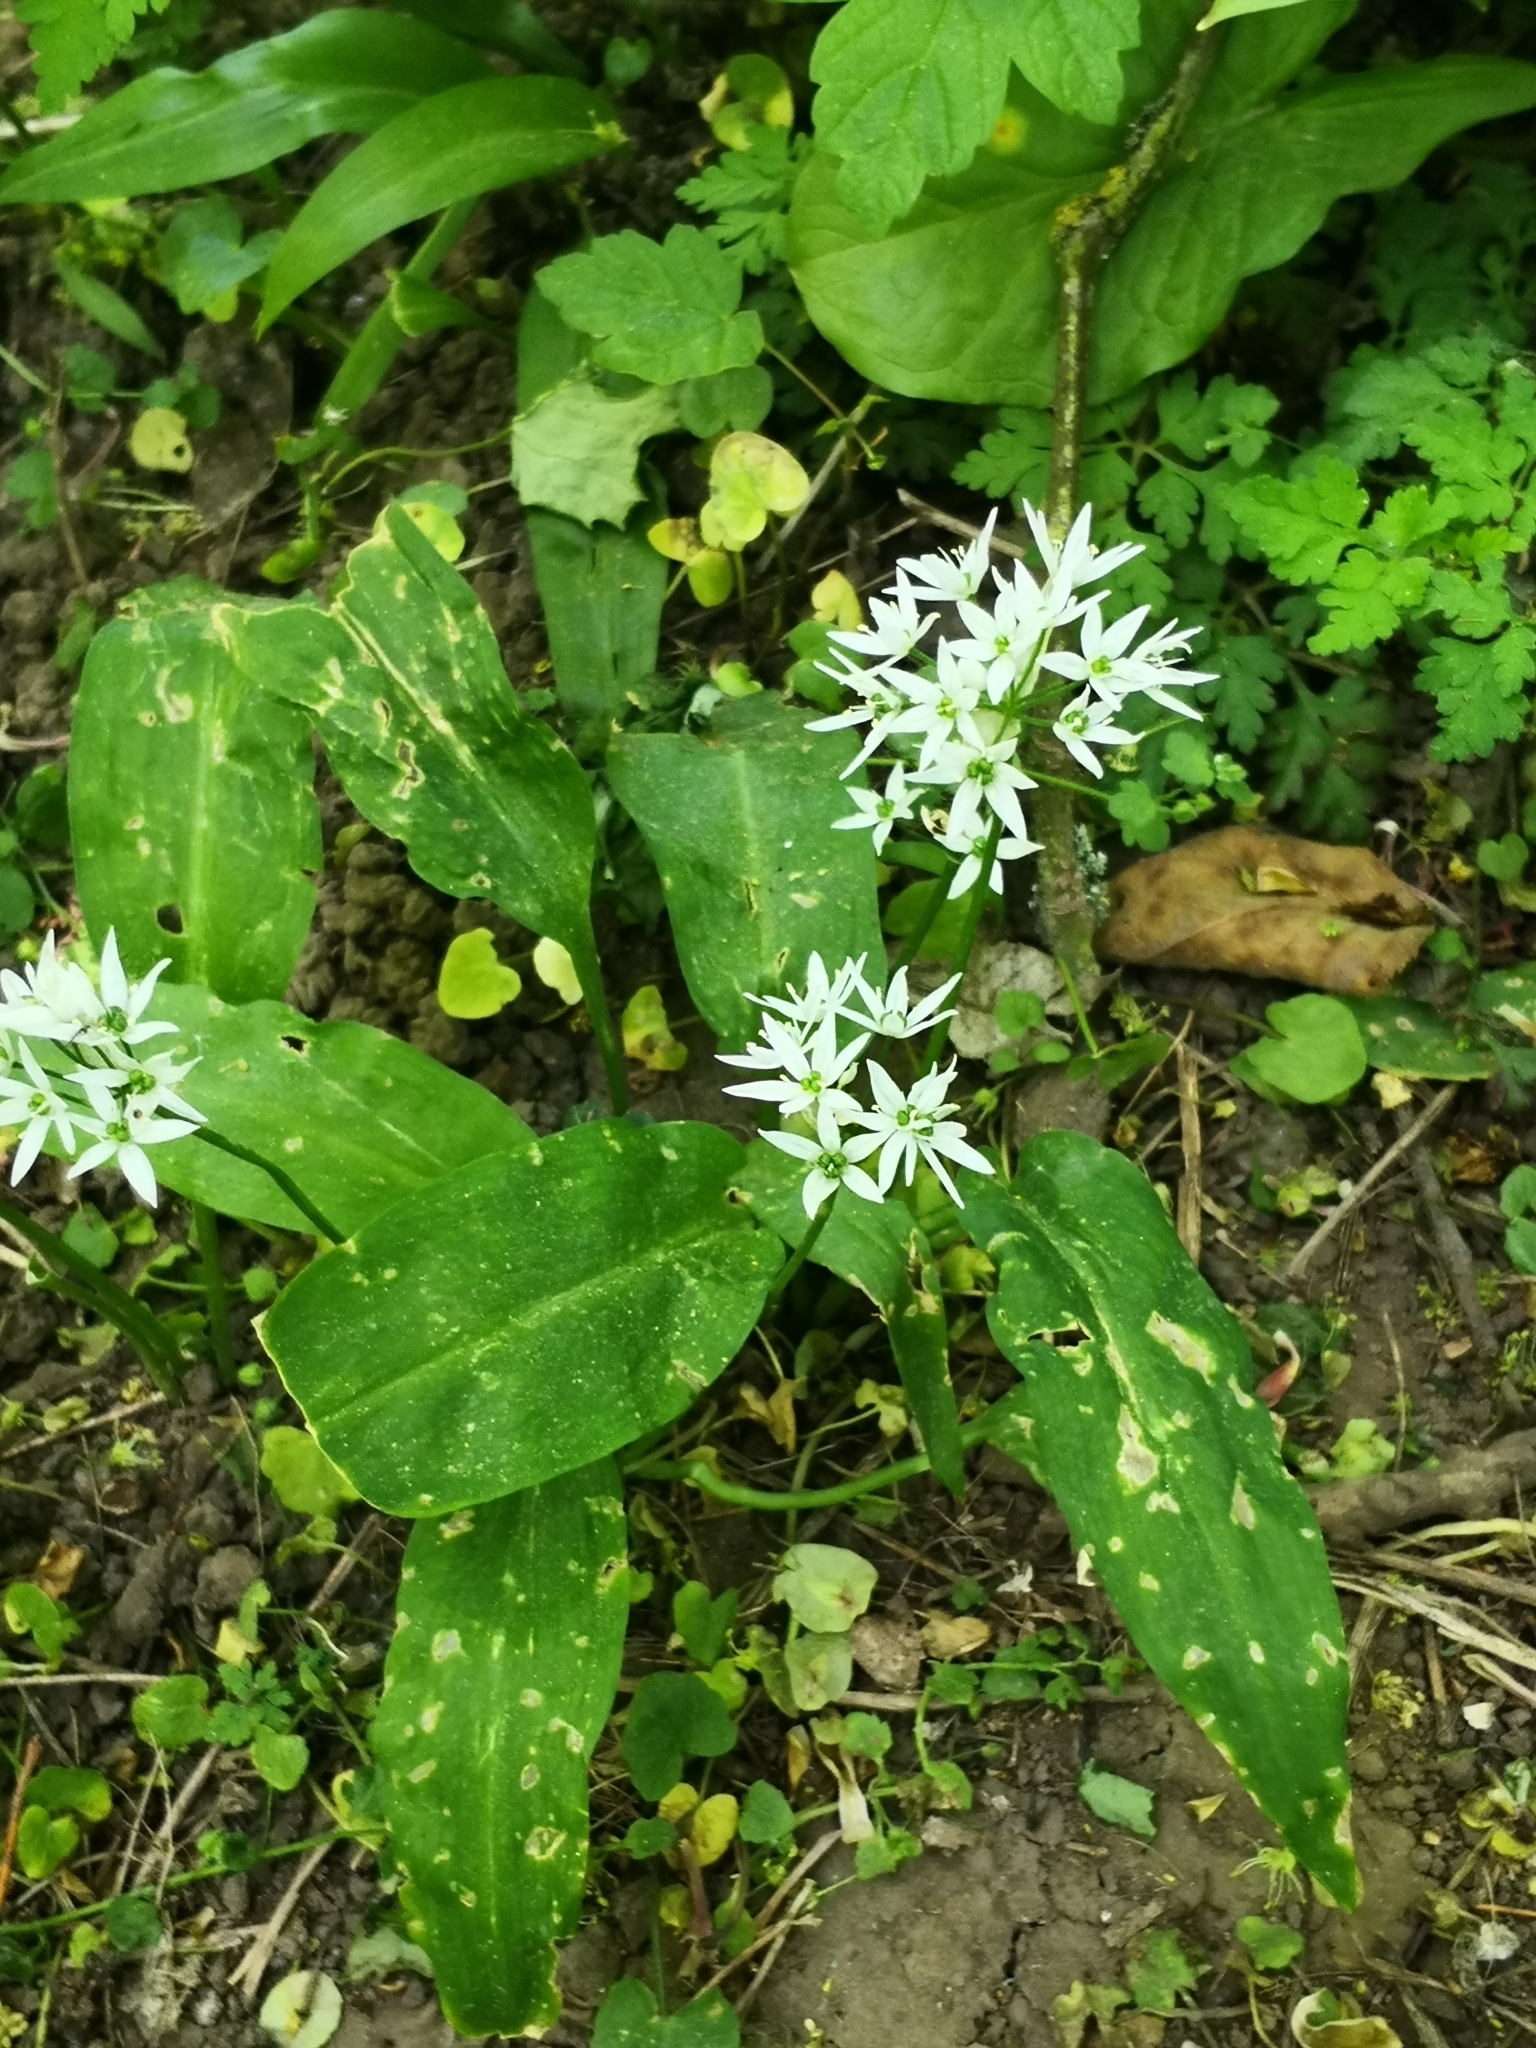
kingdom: Plantae
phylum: Tracheophyta
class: Liliopsida
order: Asparagales
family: Amaryllidaceae
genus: Allium
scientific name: Allium ursinum
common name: Ramsons
